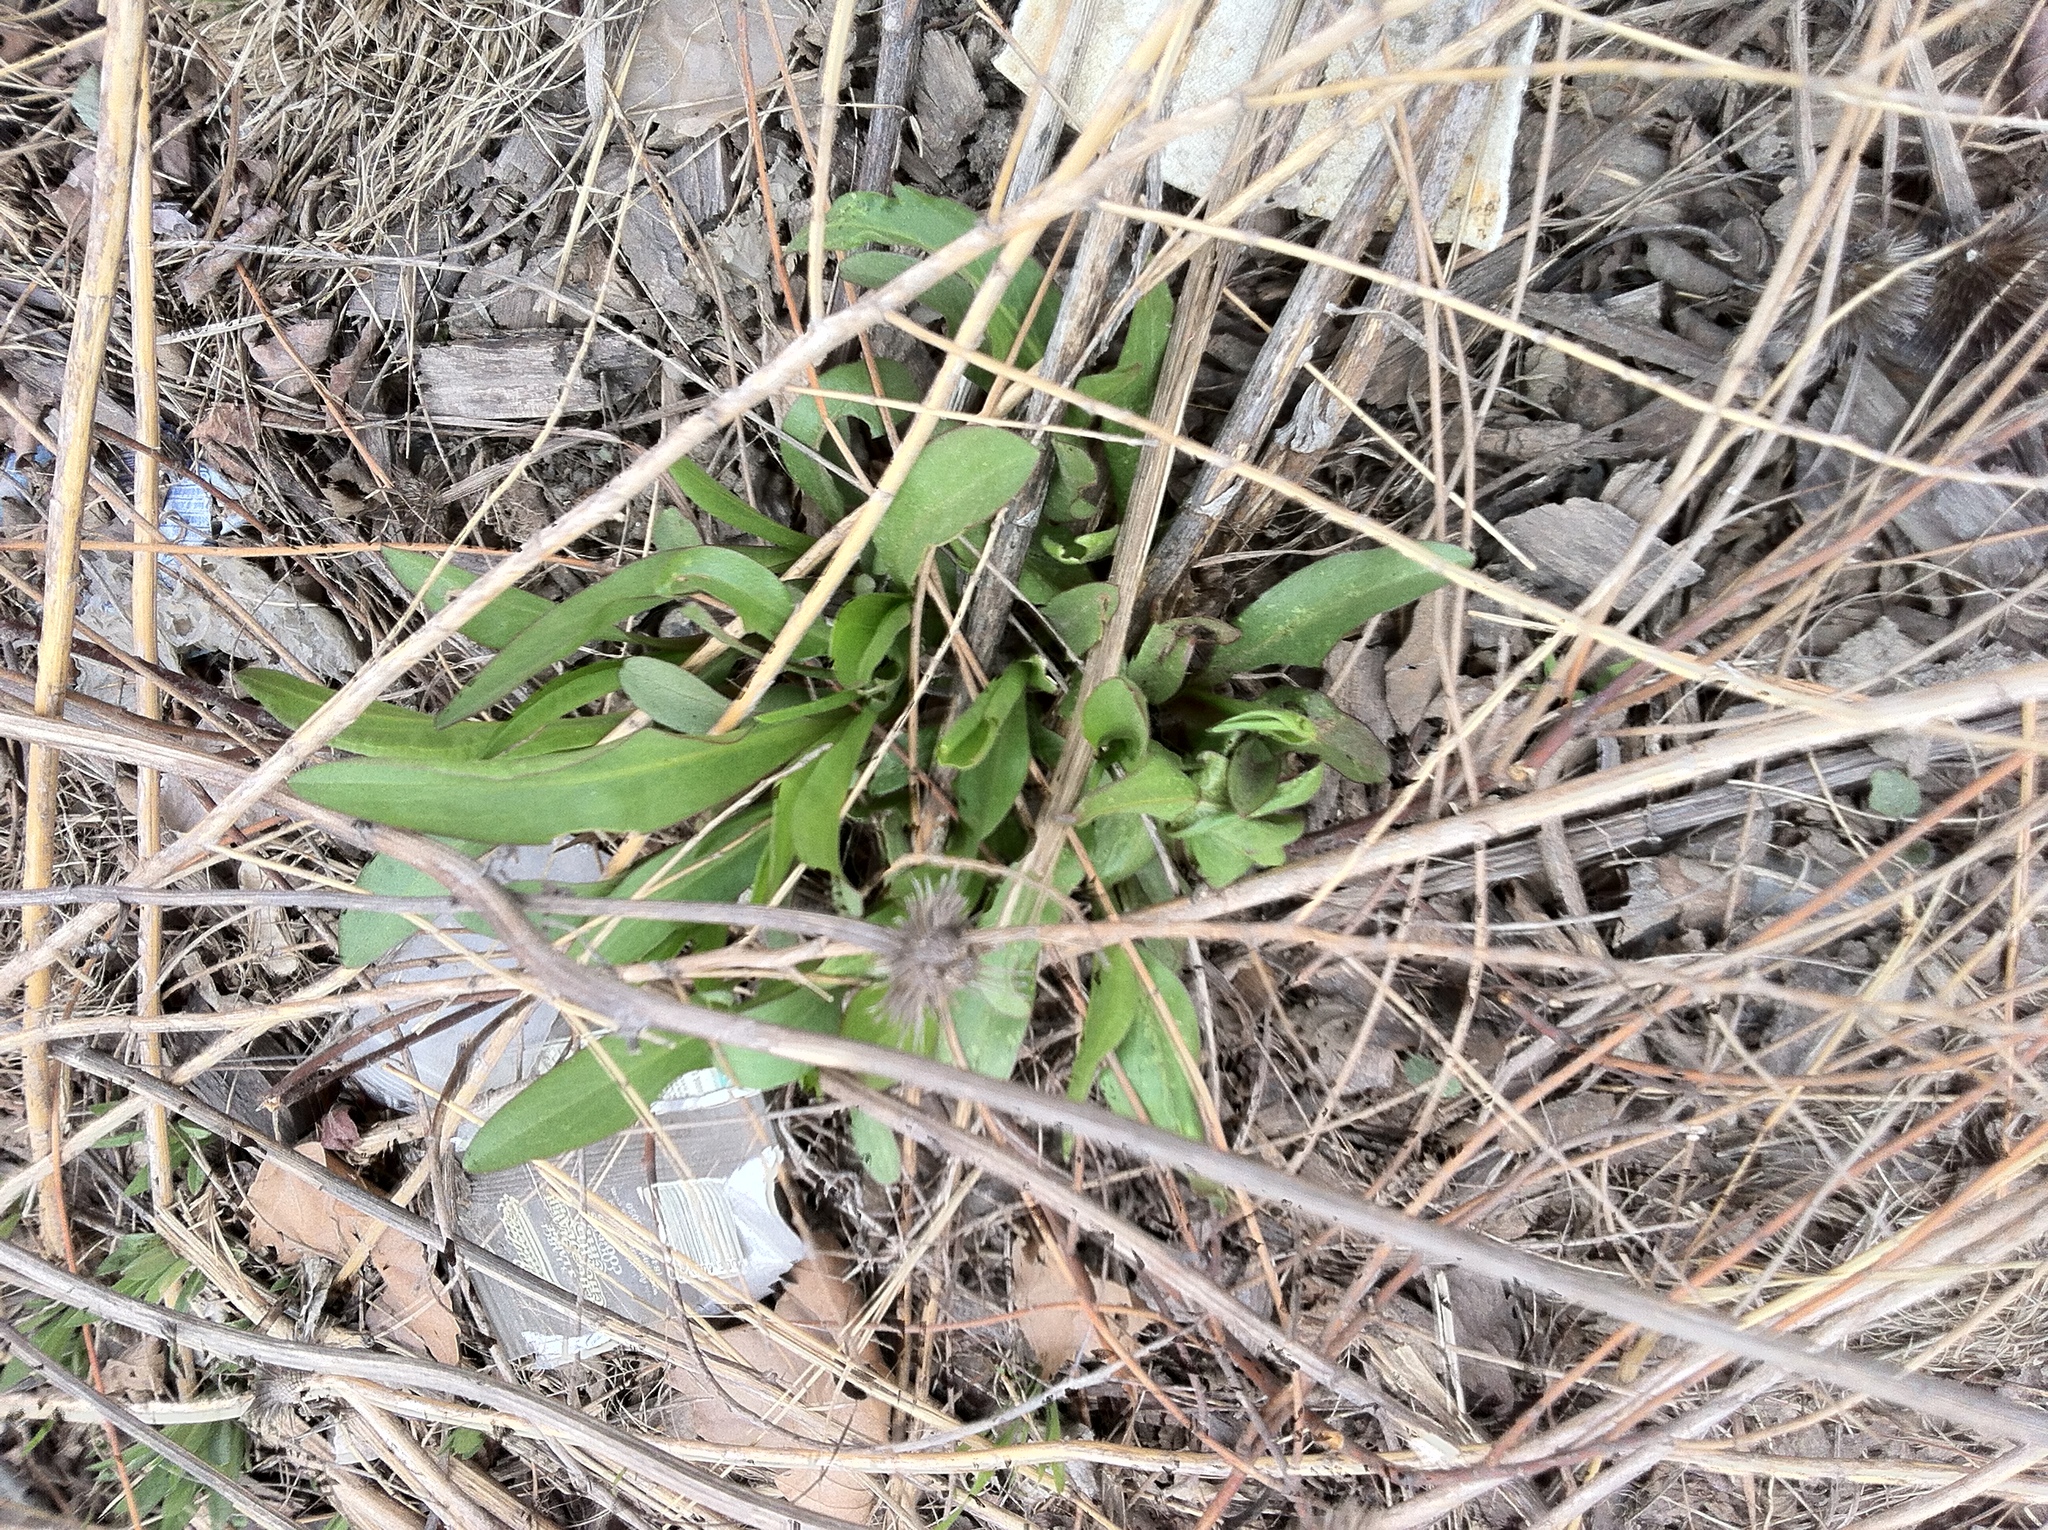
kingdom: Plantae
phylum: Tracheophyta
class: Magnoliopsida
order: Asterales
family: Asteraceae
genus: Solidago
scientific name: Solidago sempervirens
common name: Salt-marsh goldenrod
